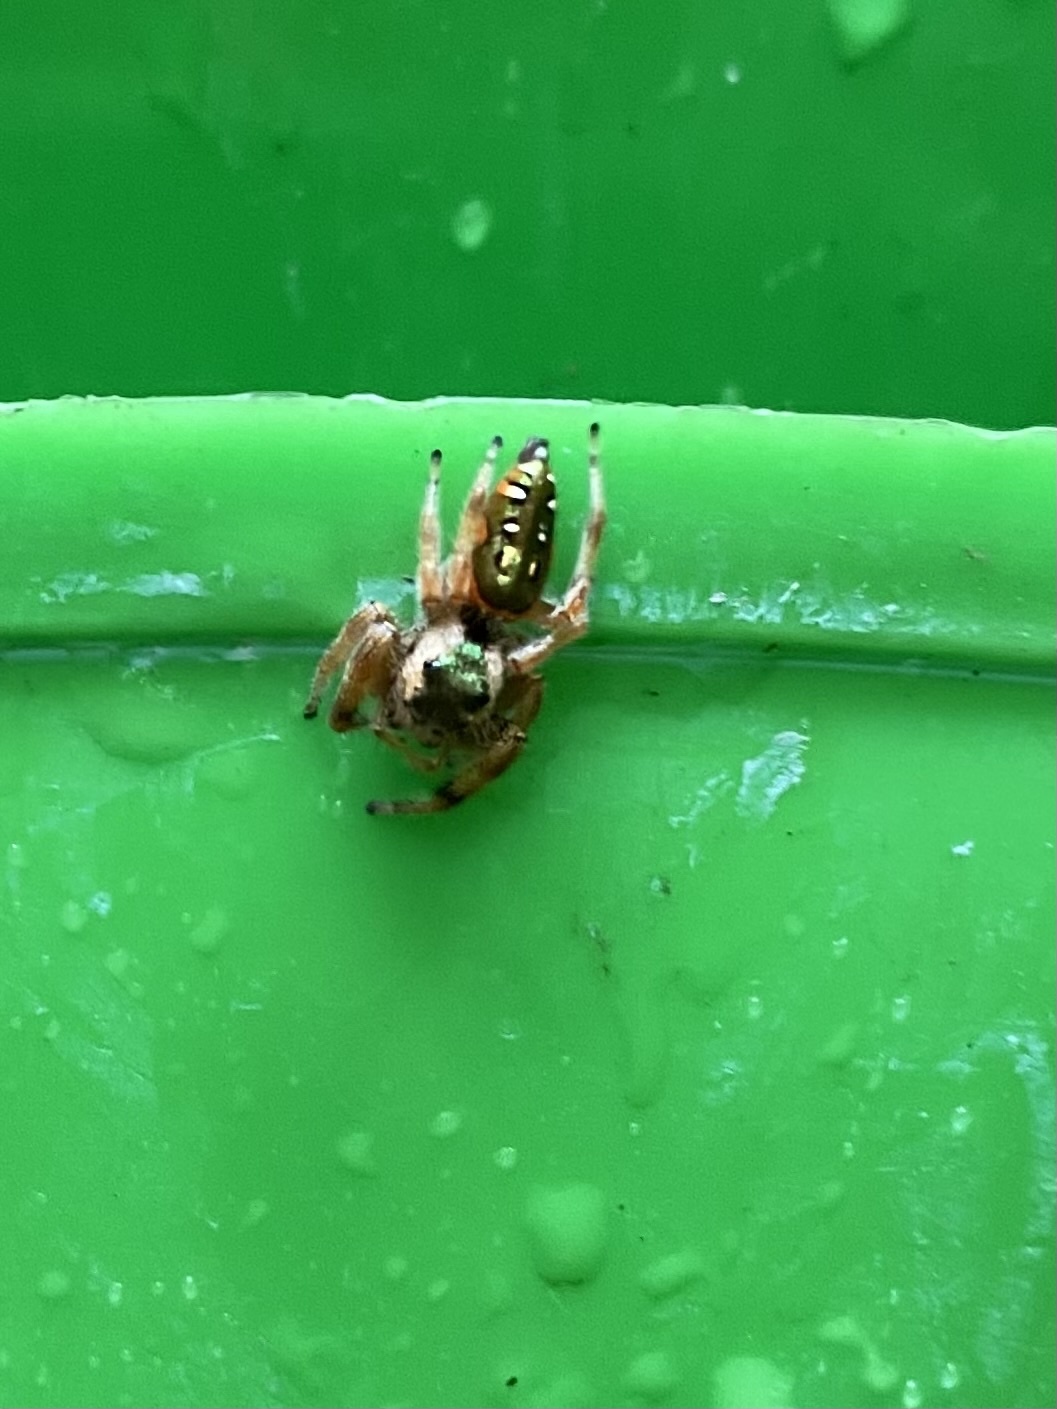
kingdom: Animalia
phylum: Arthropoda
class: Arachnida
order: Araneae
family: Salticidae
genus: Paraphidippus
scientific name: Paraphidippus aurantius
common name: Jumping spiders
